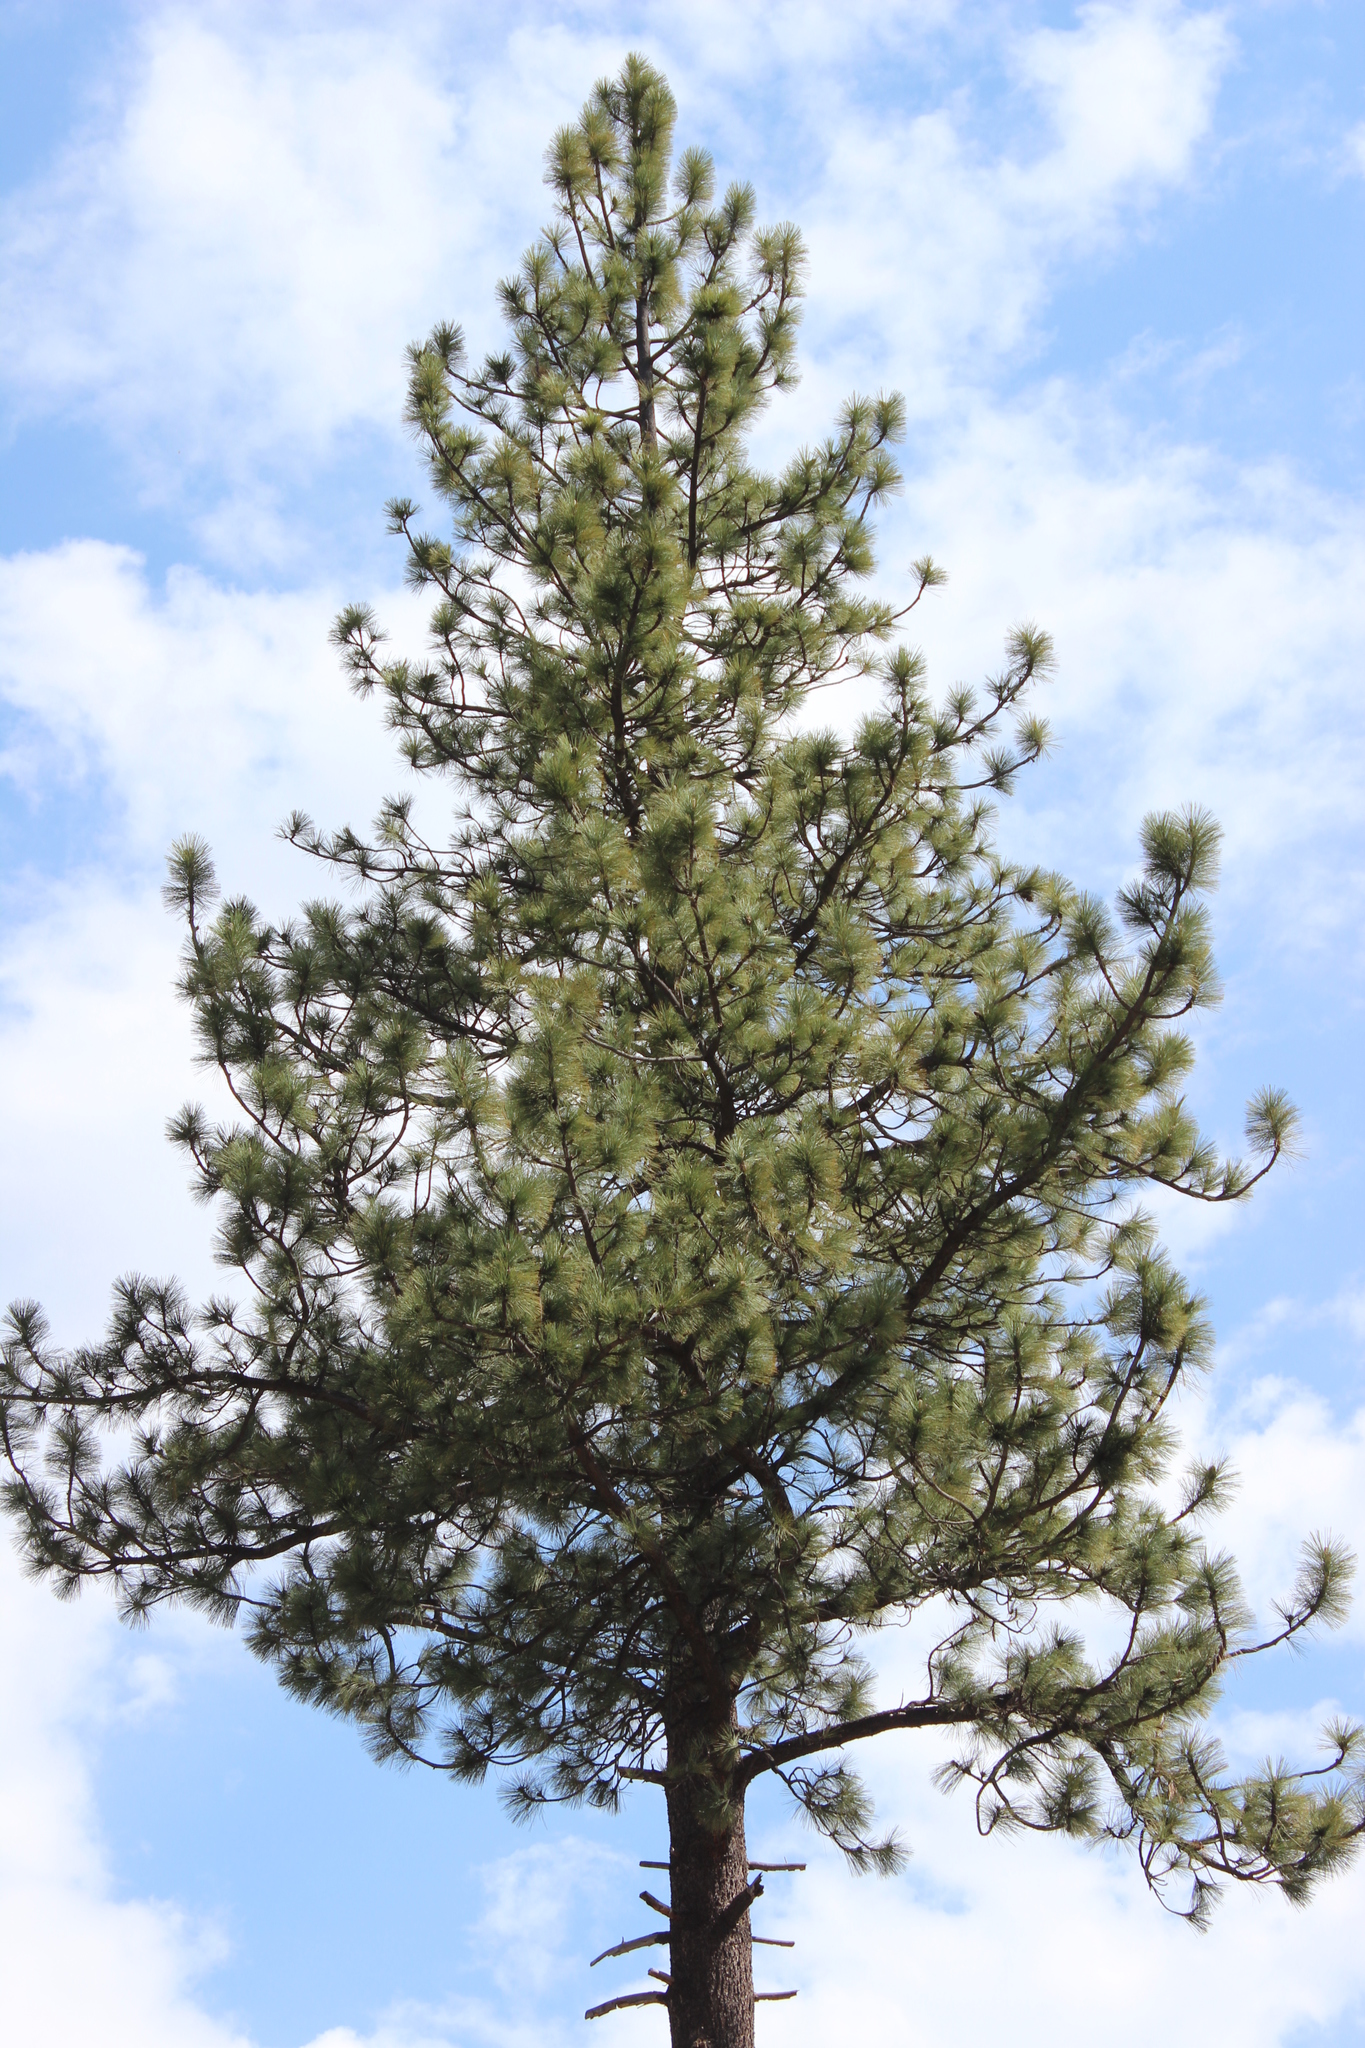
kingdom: Plantae
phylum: Tracheophyta
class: Pinopsida
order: Pinales
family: Pinaceae
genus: Pinus
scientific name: Pinus jeffreyi
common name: Jeffrey pine
